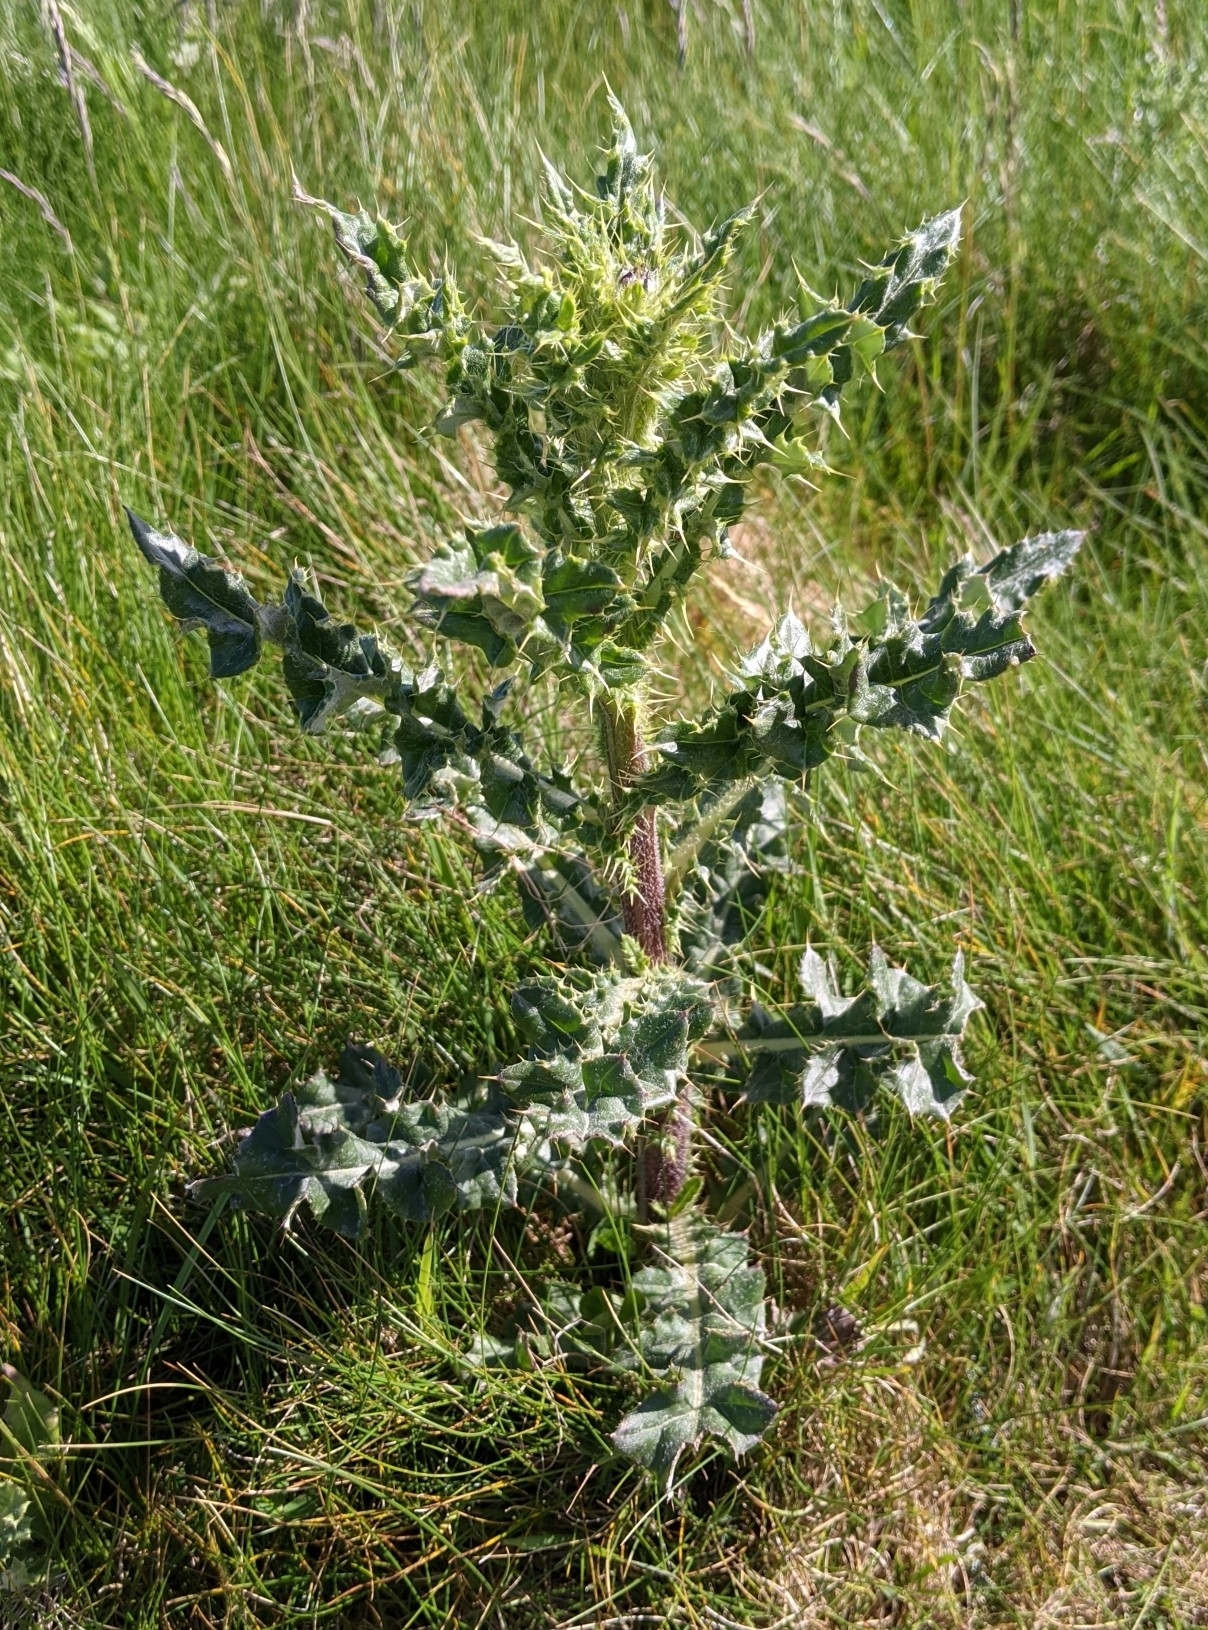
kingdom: Plantae
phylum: Tracheophyta
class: Magnoliopsida
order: Asterales
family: Asteraceae
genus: Cirsium
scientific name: Cirsium arvense
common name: Creeping thistle
